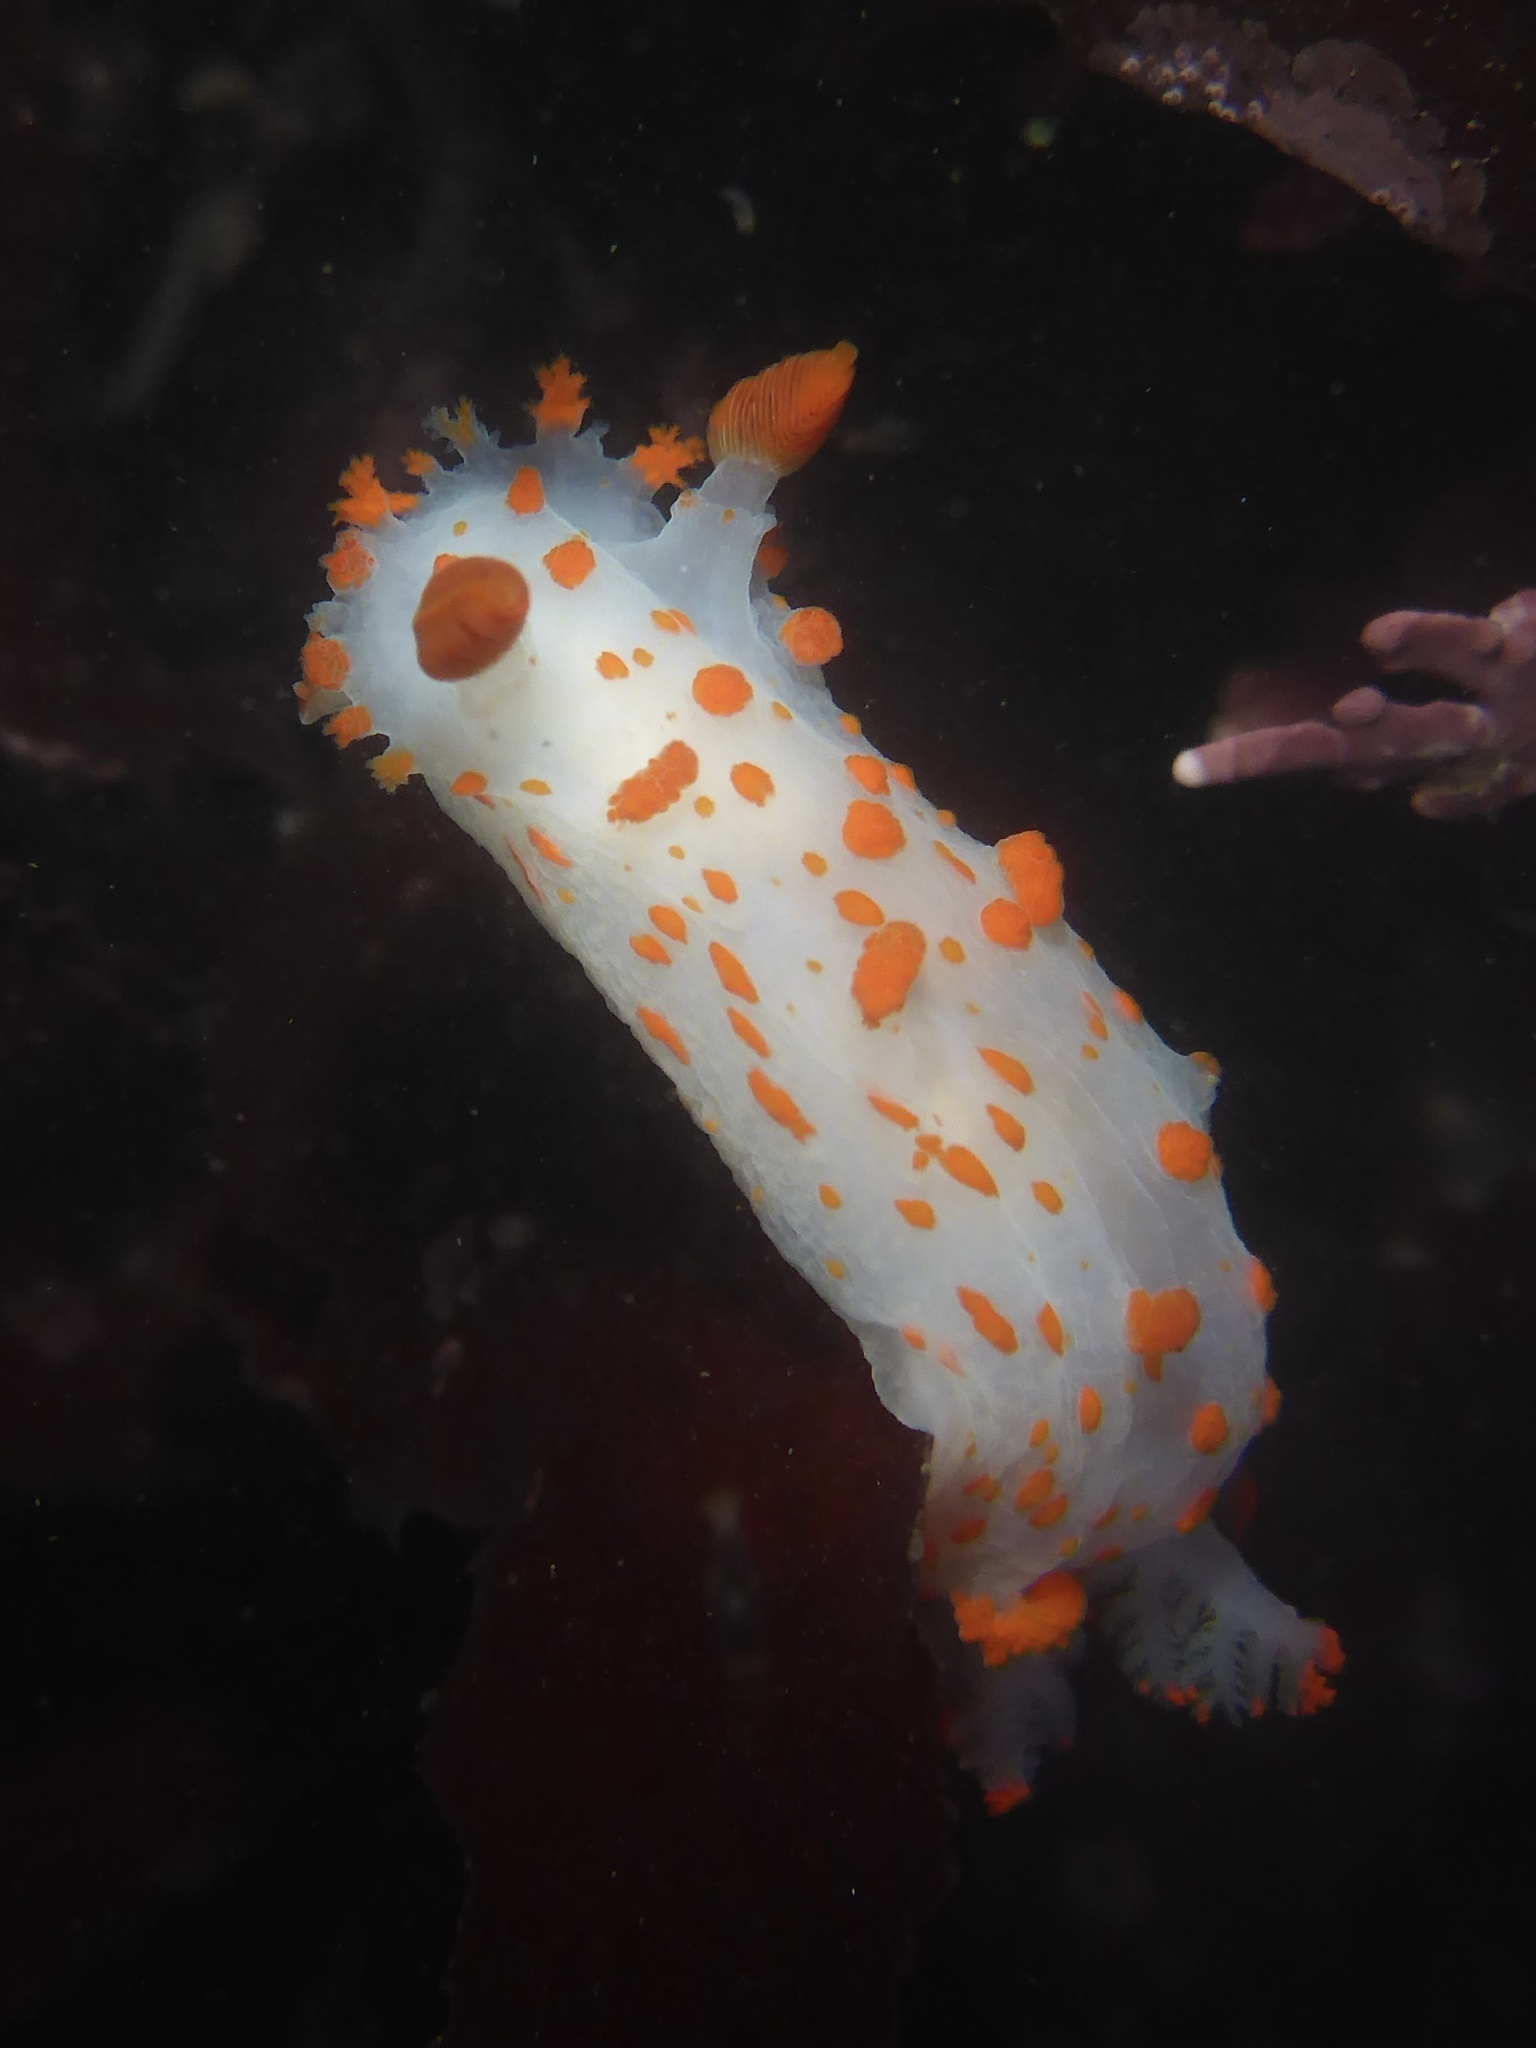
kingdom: Animalia
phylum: Mollusca
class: Gastropoda
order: Nudibranchia
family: Polyceridae
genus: Triopha
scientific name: Triopha catalinae
